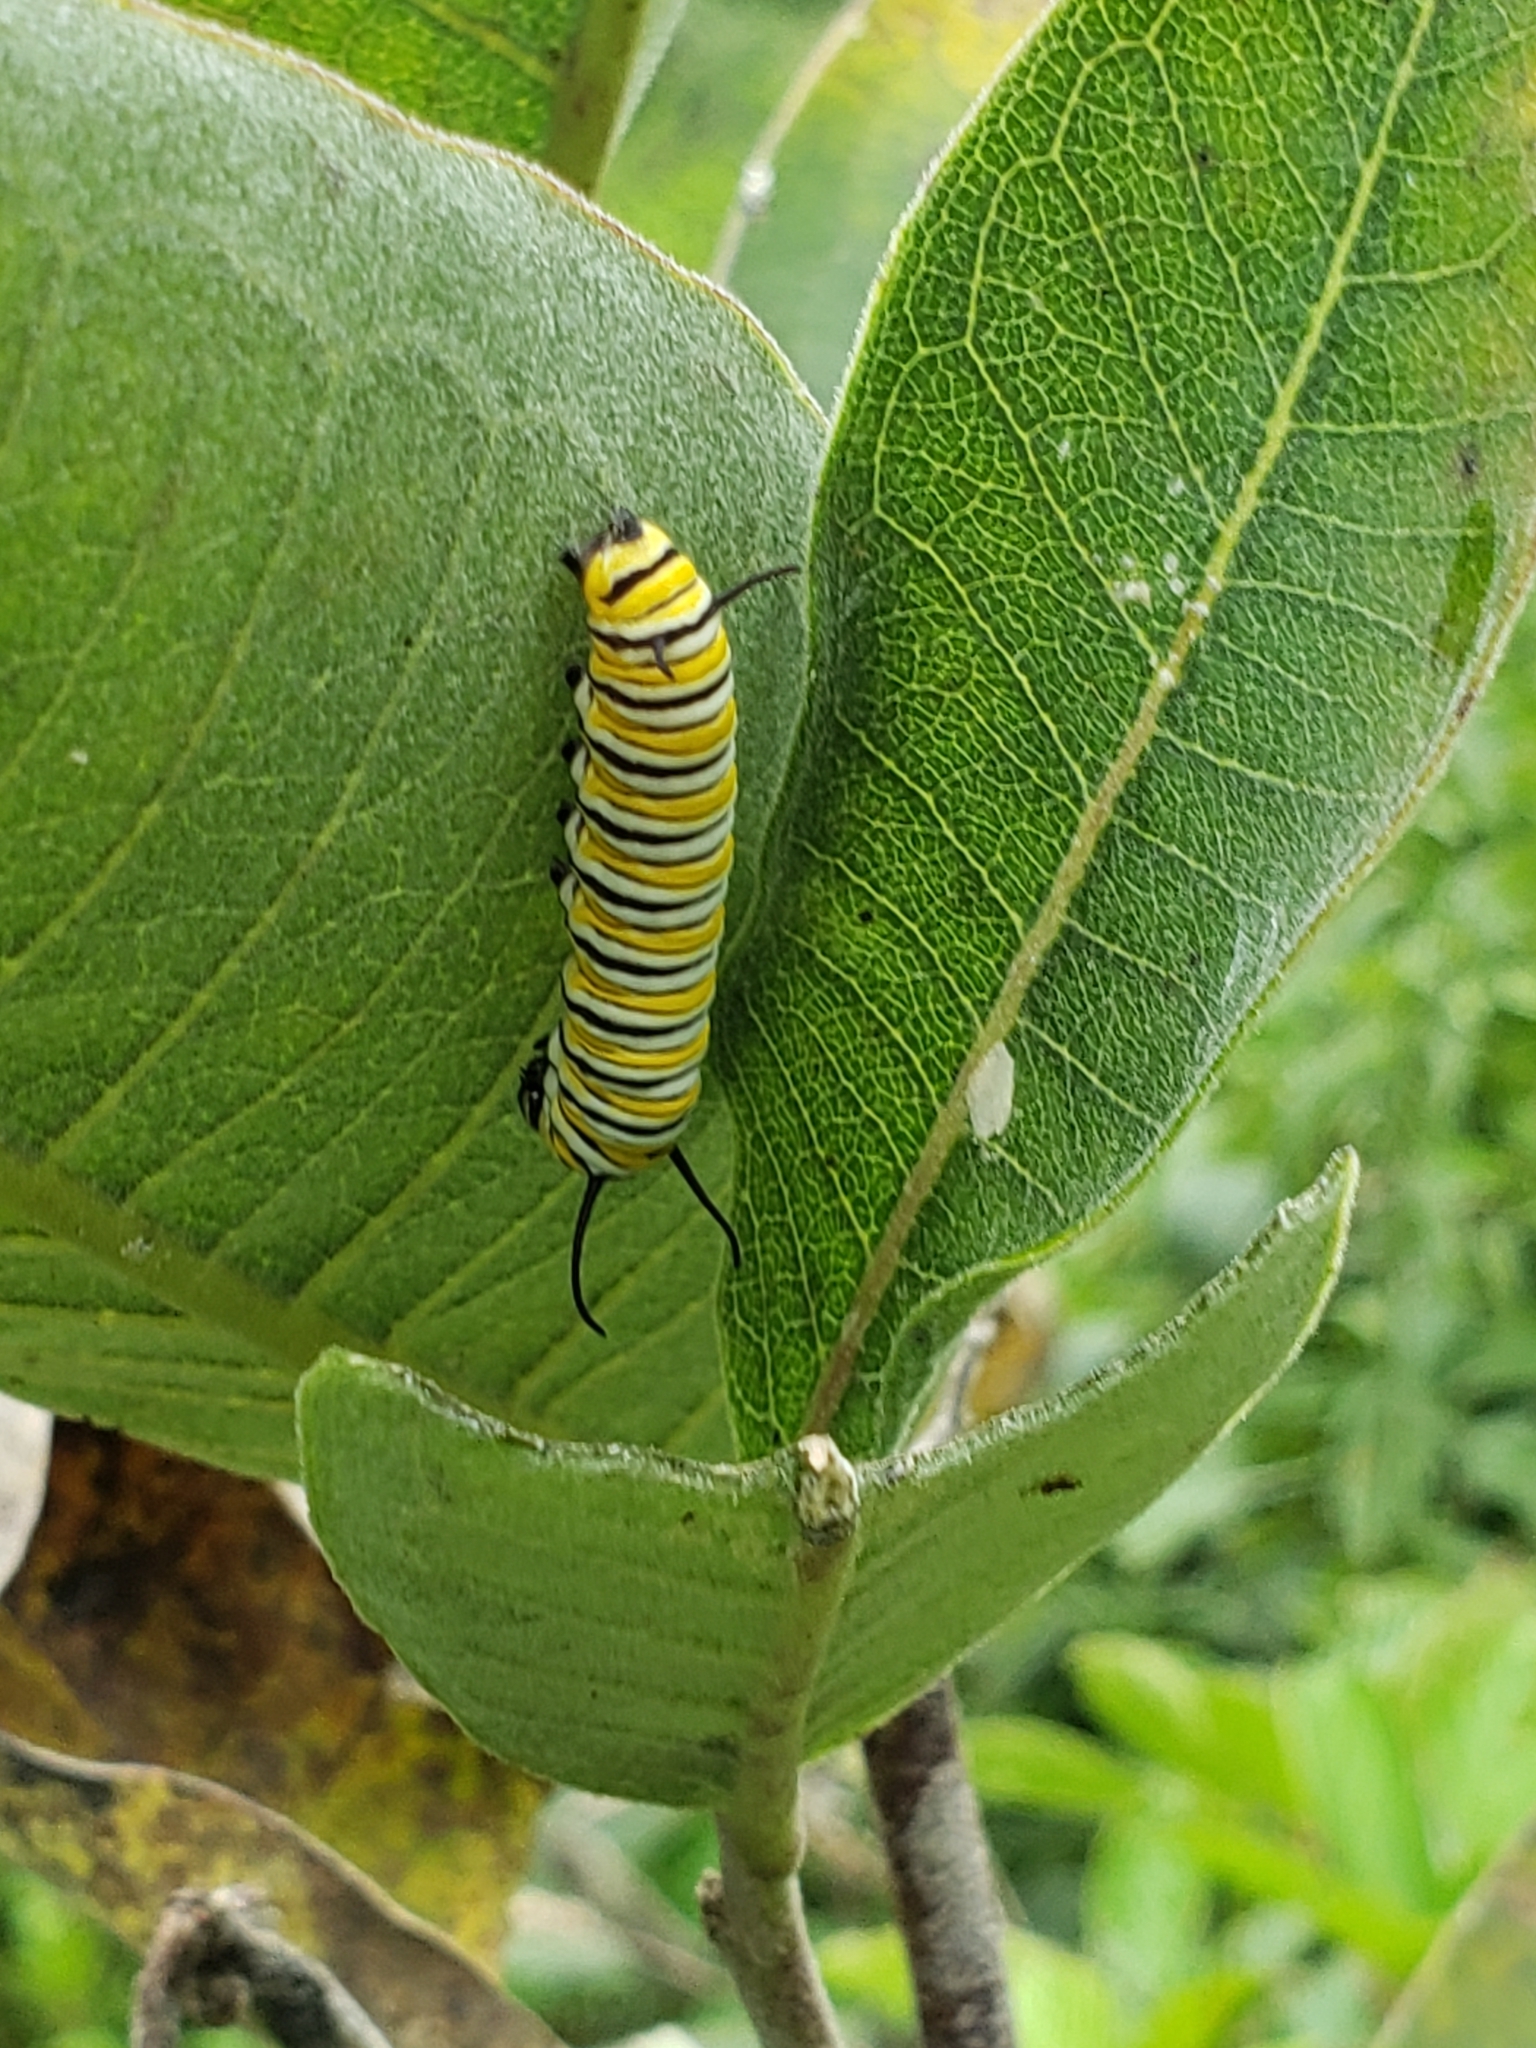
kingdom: Animalia
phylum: Arthropoda
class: Insecta
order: Lepidoptera
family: Nymphalidae
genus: Danaus
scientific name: Danaus plexippus
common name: Monarch
